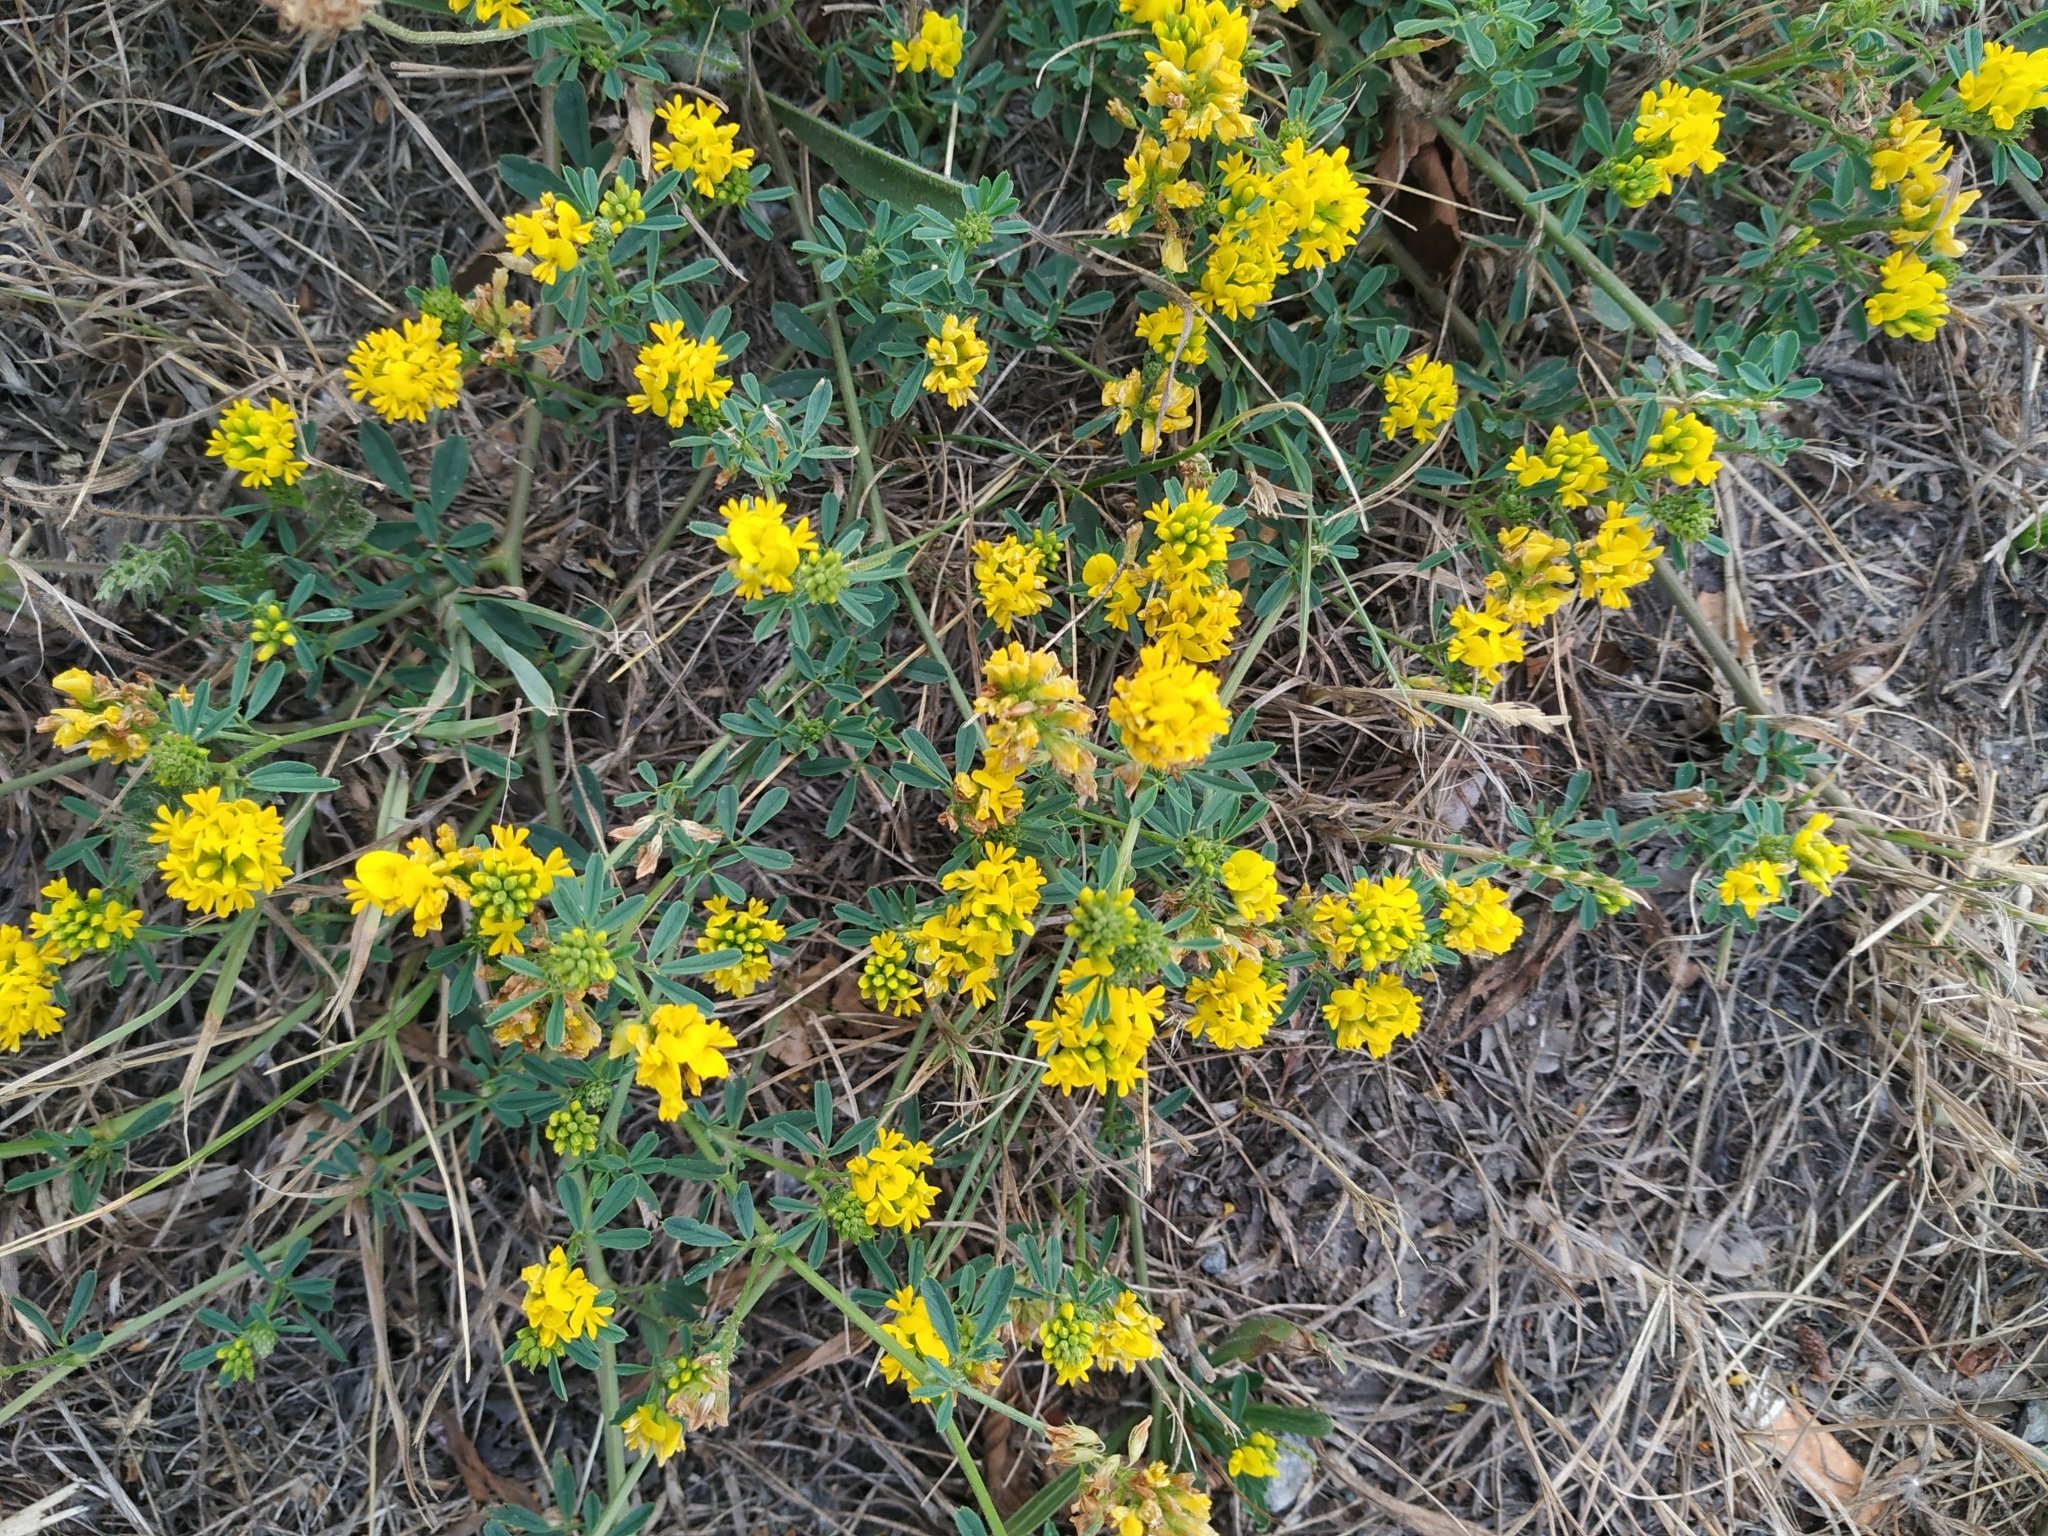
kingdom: Plantae
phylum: Tracheophyta
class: Magnoliopsida
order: Fabales
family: Fabaceae
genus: Medicago
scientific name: Medicago falcata
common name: Sickle medick
